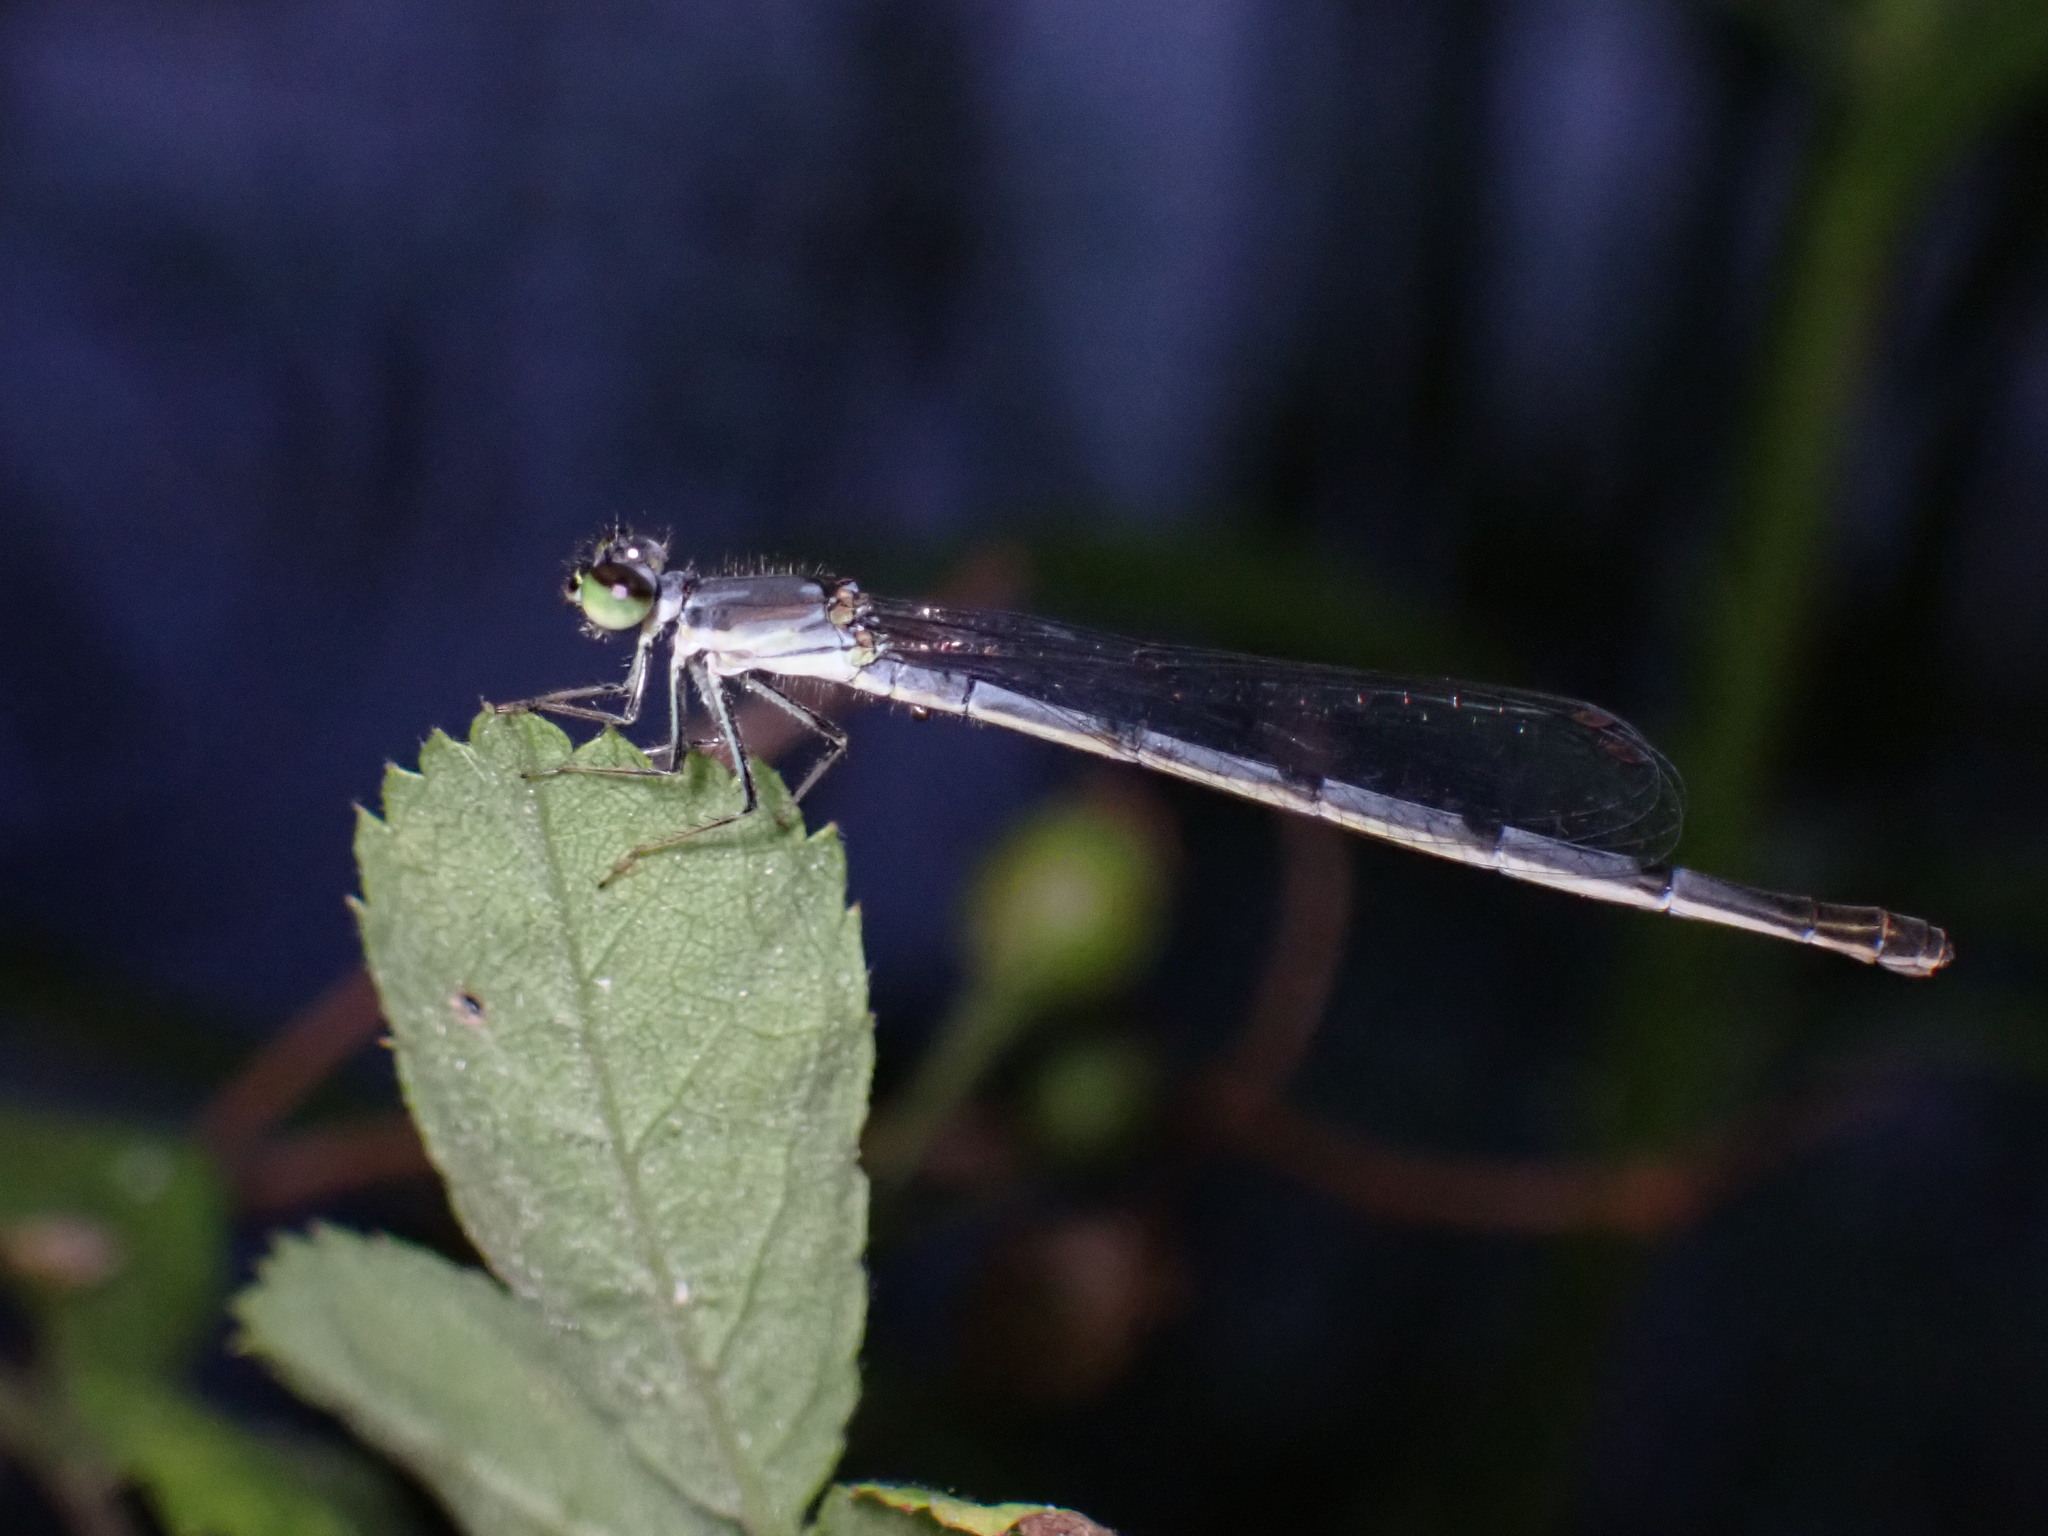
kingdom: Animalia
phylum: Arthropoda
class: Insecta
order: Odonata
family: Coenagrionidae
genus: Ischnura
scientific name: Ischnura posita
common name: Fragile forktail
